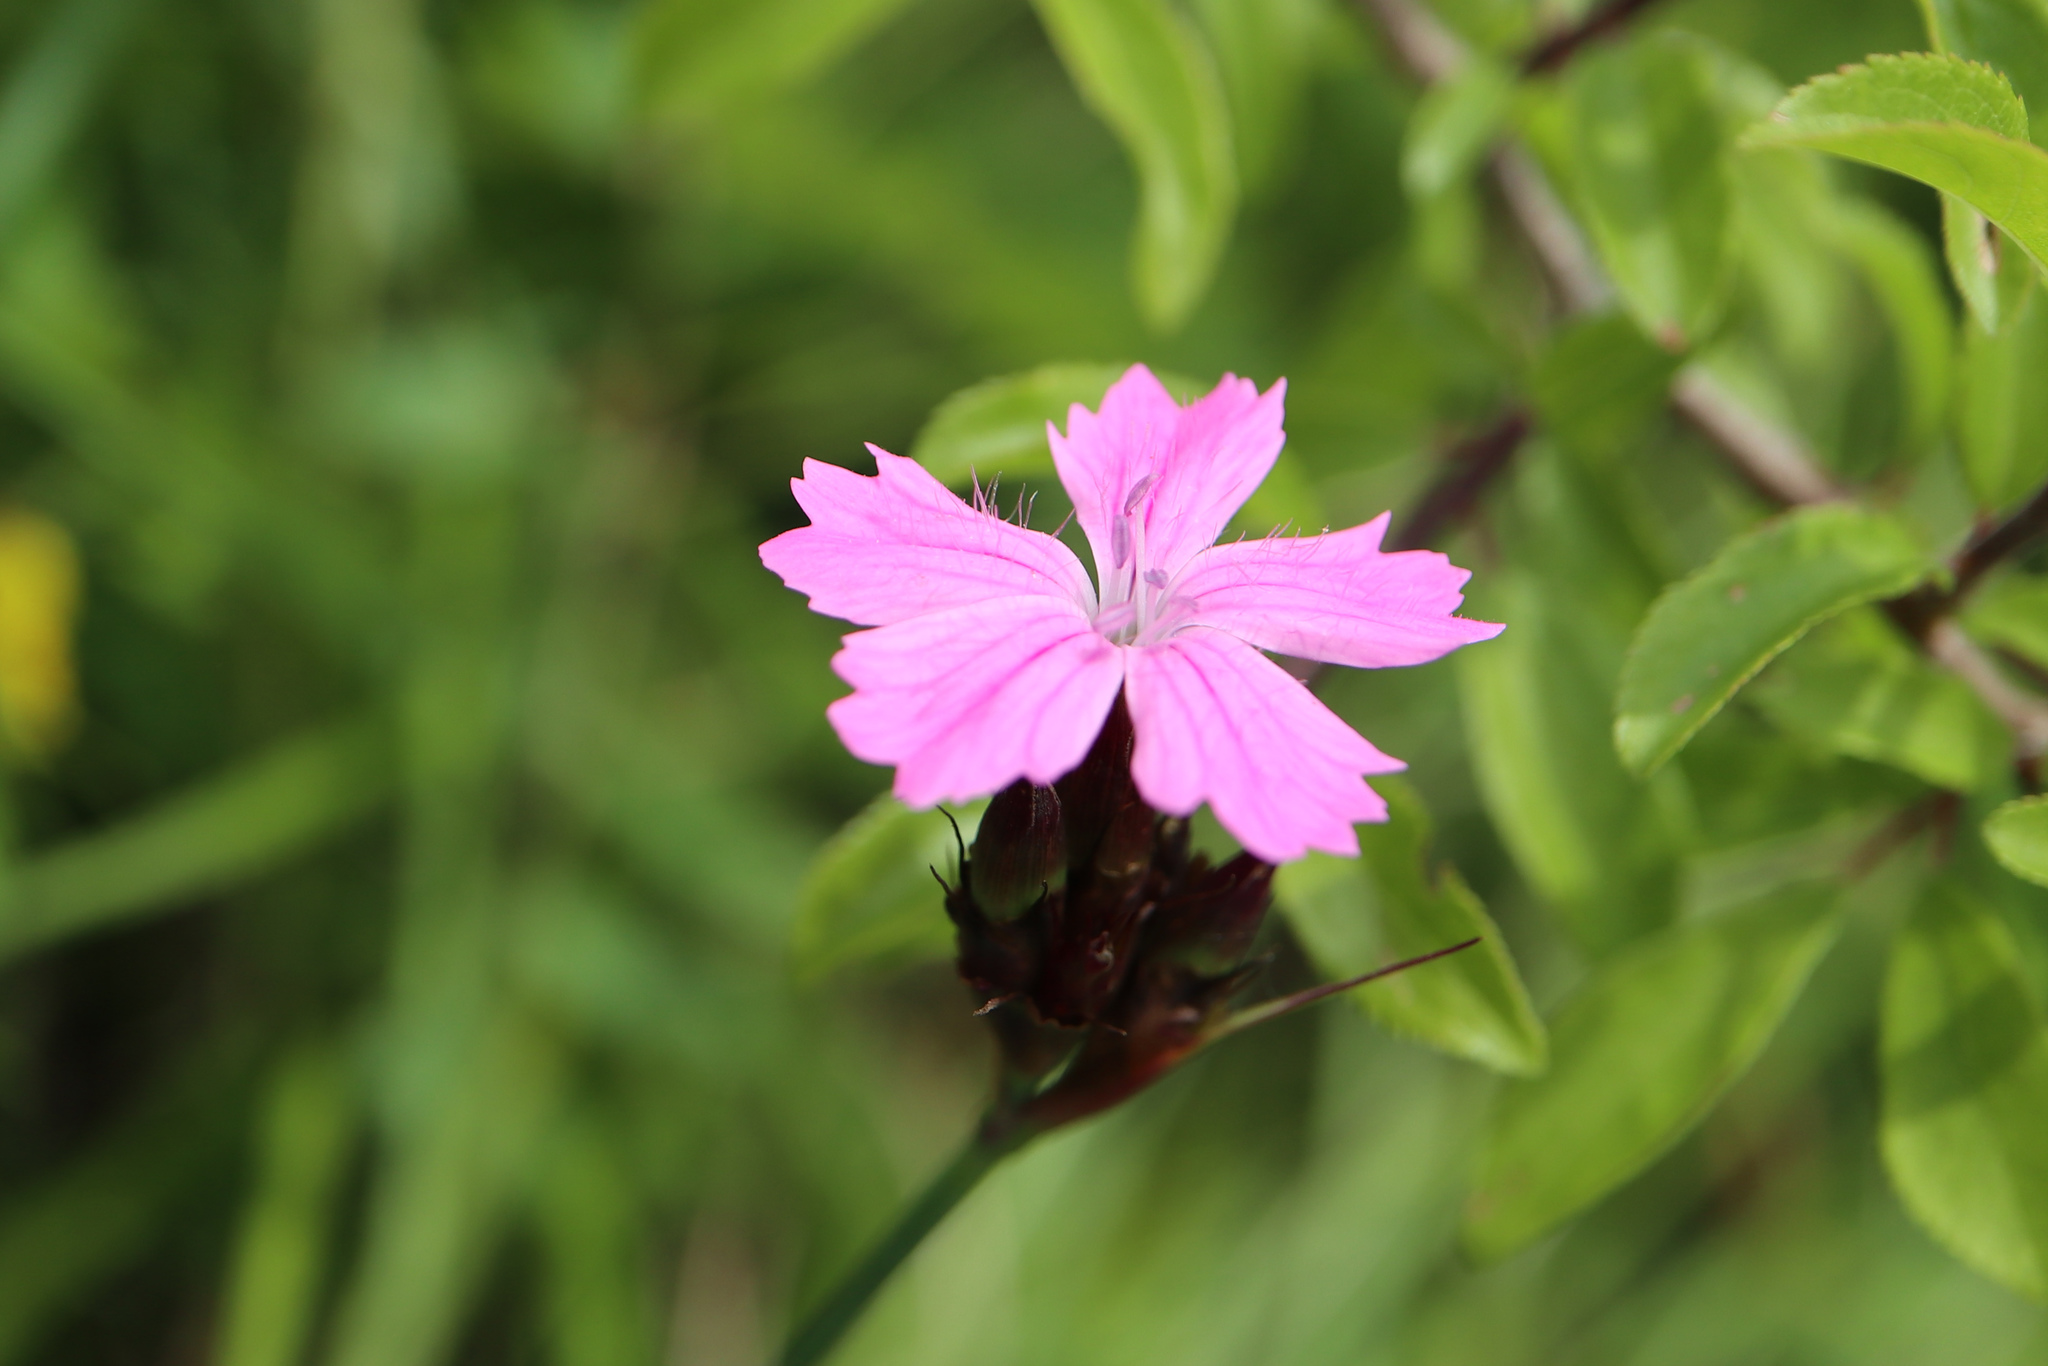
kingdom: Plantae
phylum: Tracheophyta
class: Magnoliopsida
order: Caryophyllales
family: Caryophyllaceae
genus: Dianthus
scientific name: Dianthus carthusianorum
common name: Carthusian pink
